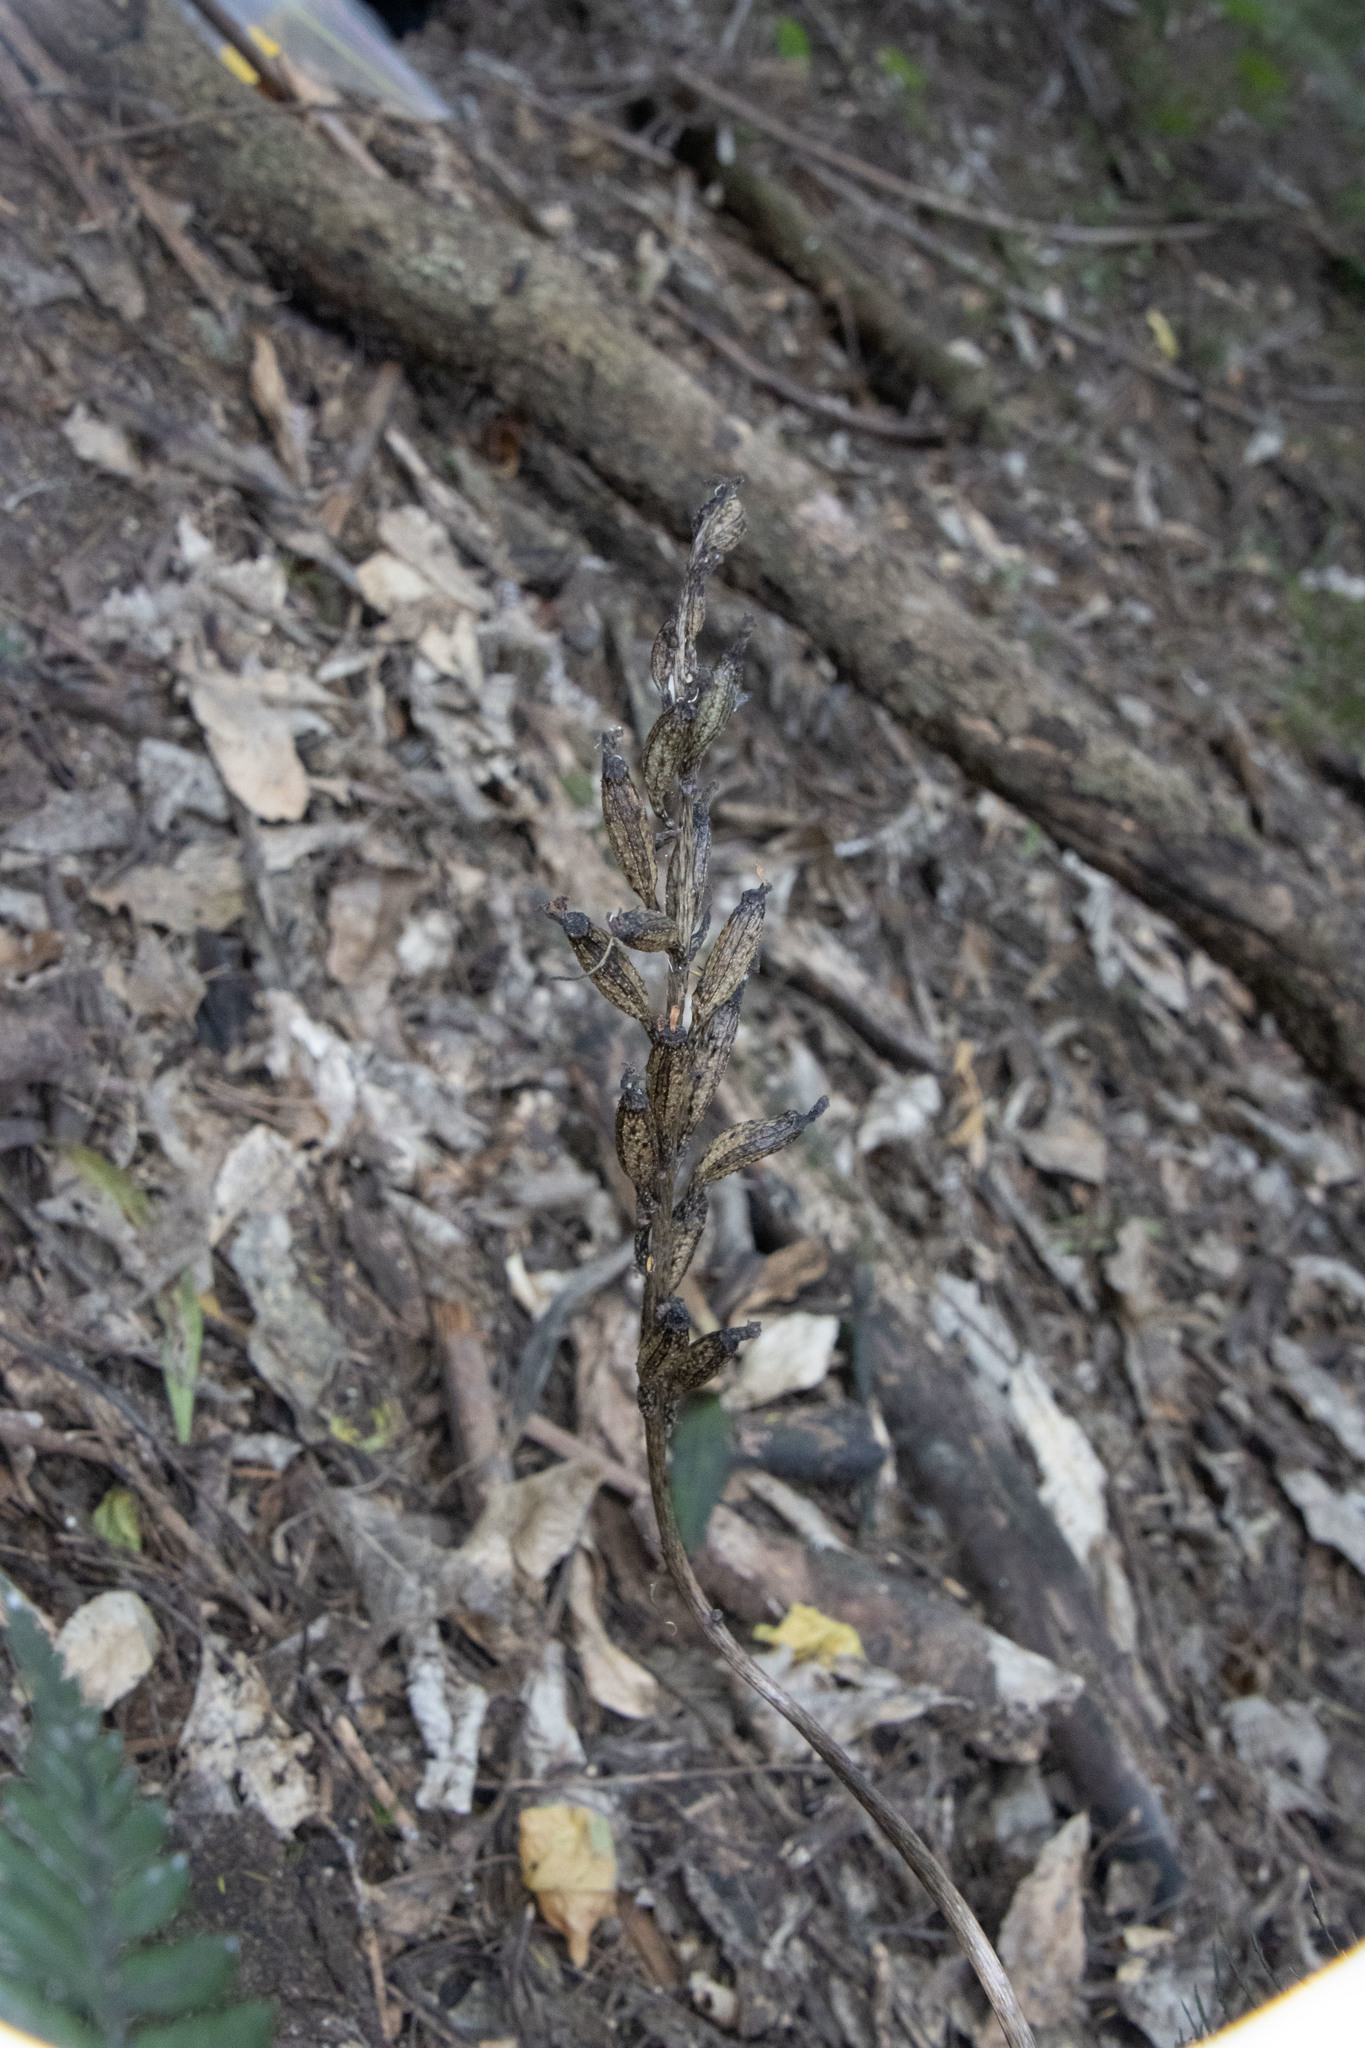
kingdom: Plantae
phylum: Tracheophyta
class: Liliopsida
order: Asparagales
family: Orchidaceae
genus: Gastrodia
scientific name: Gastrodia cooperae
